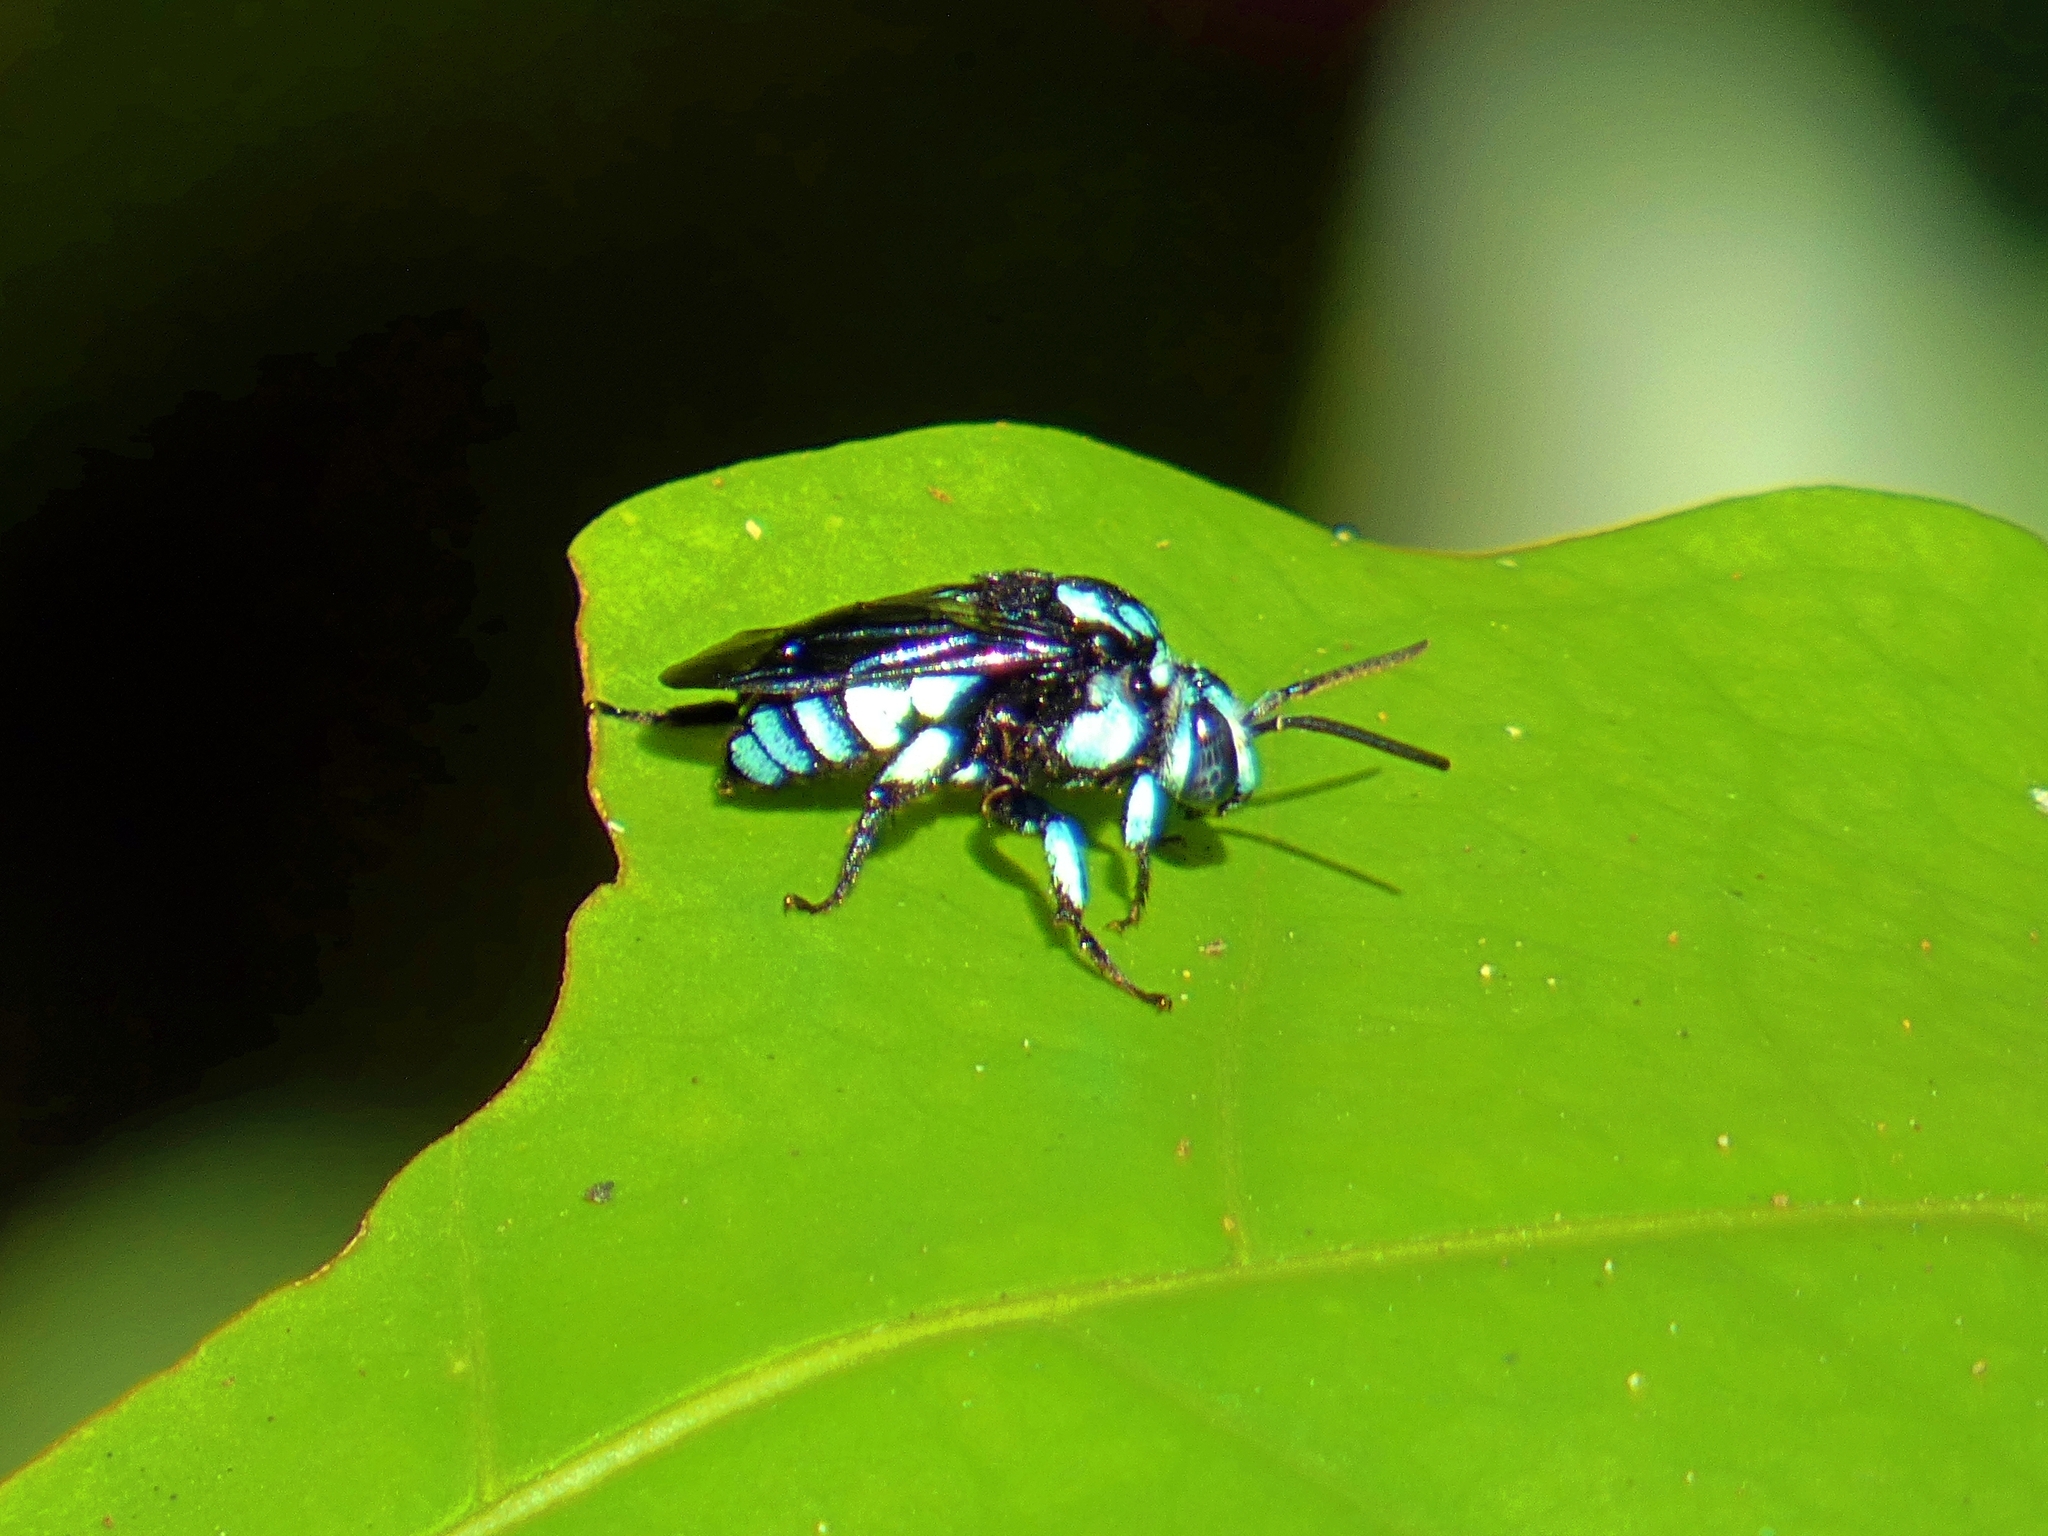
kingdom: Animalia
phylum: Arthropoda
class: Insecta
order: Hymenoptera
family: Apidae
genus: Thyreus
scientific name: Thyreus nitidulus
